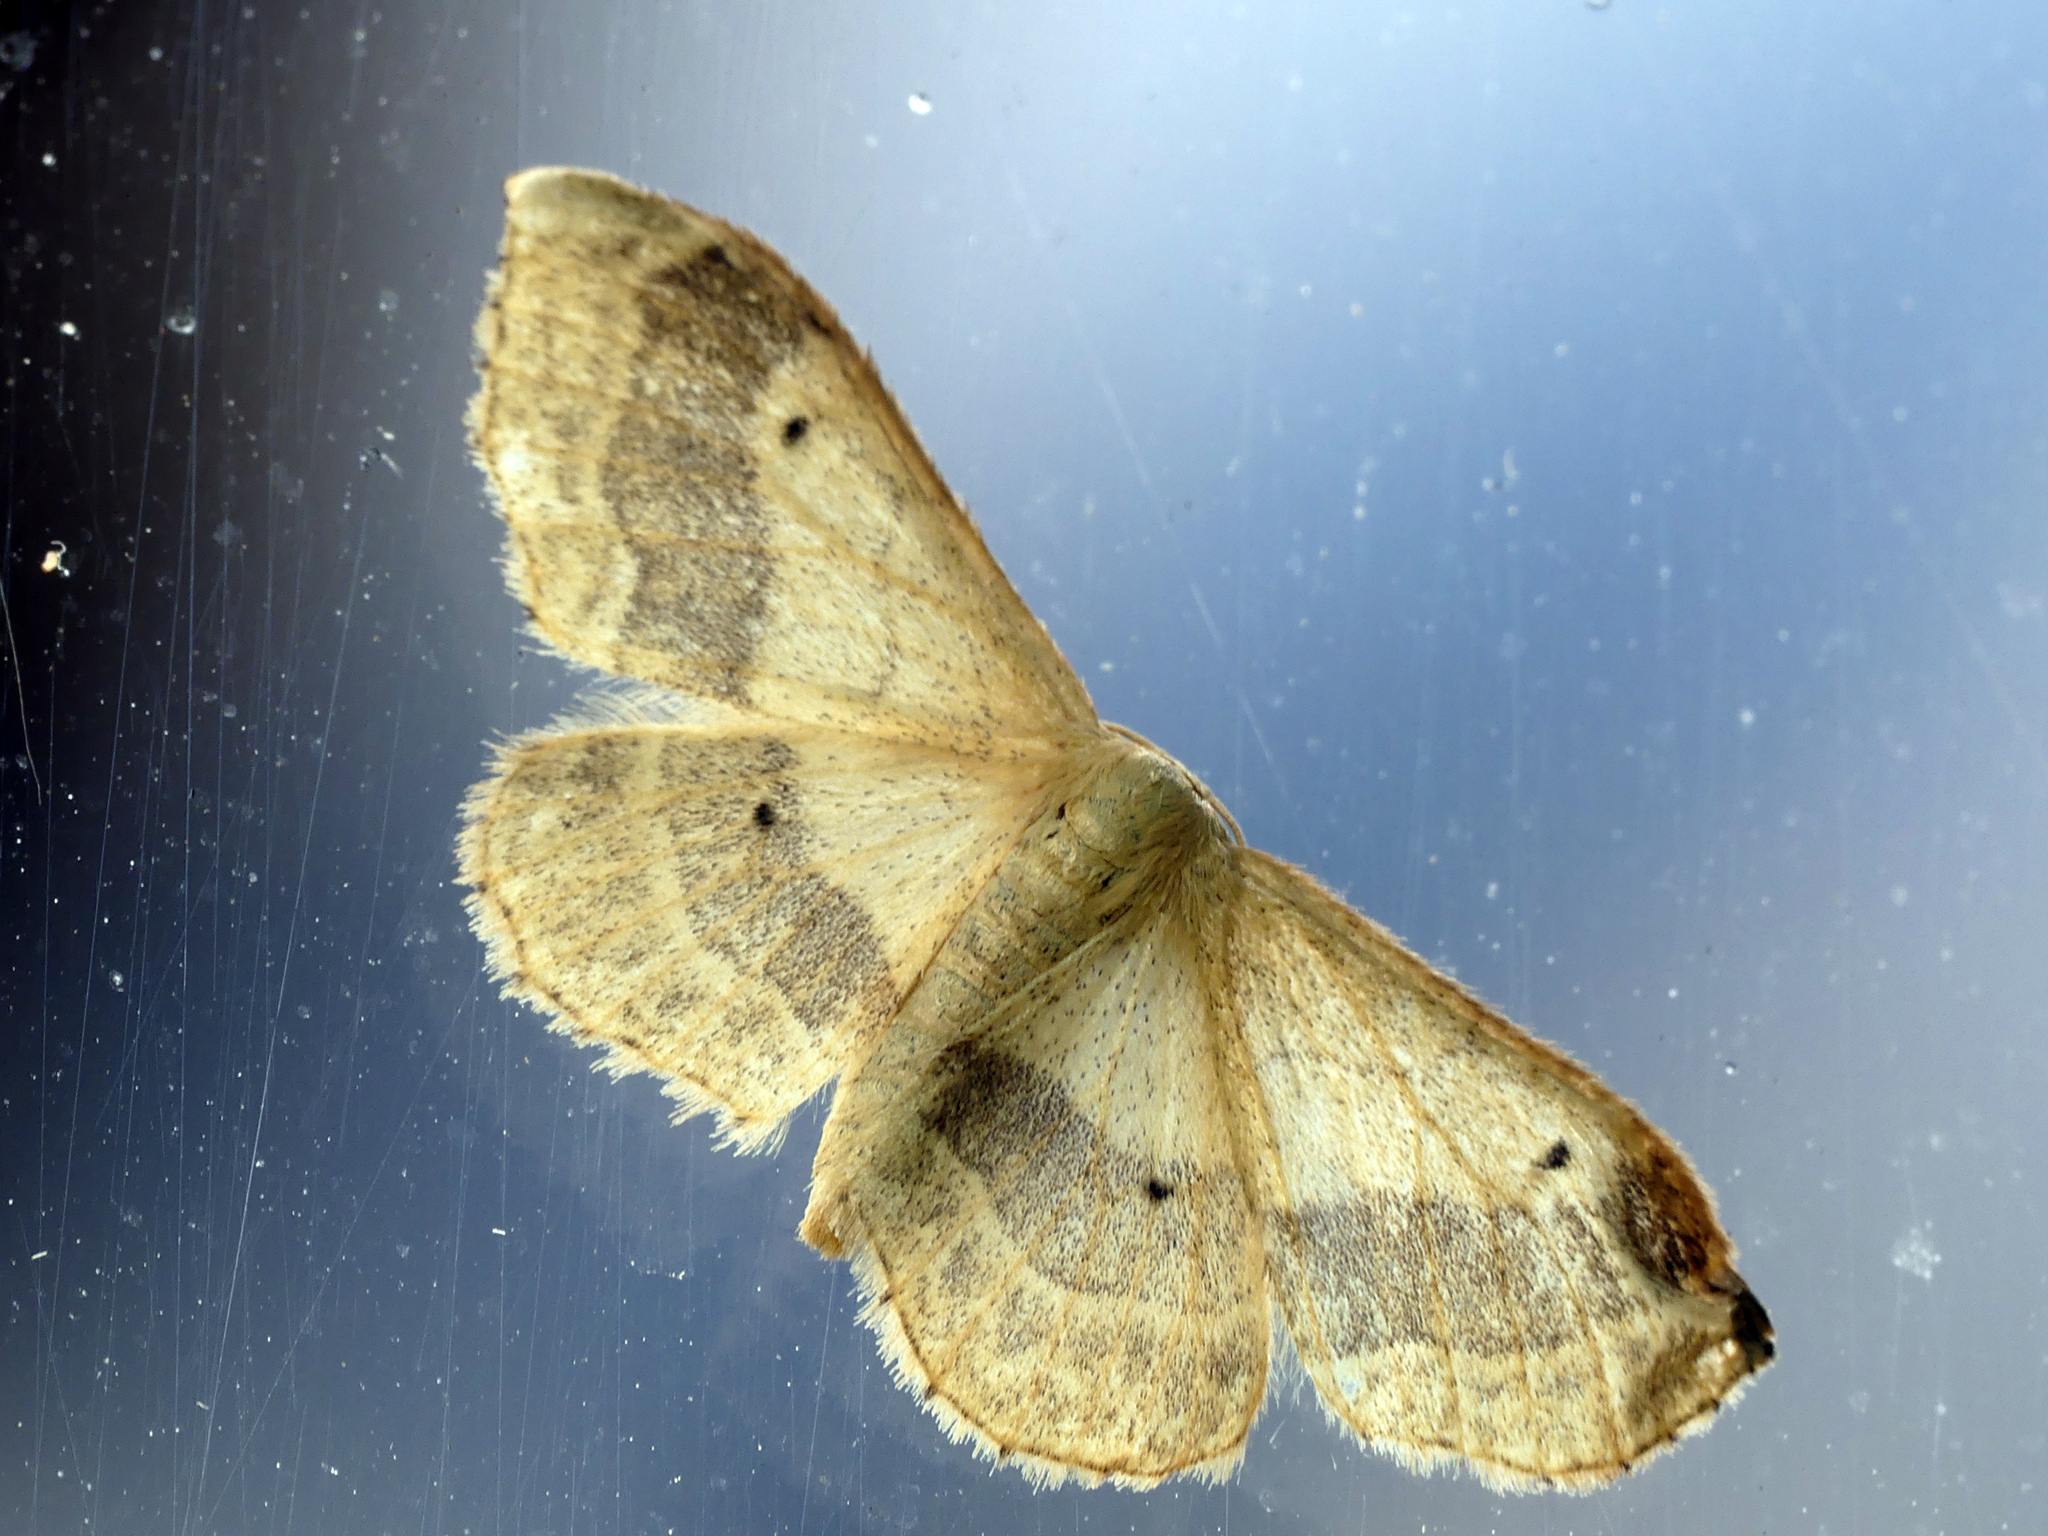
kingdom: Animalia
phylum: Arthropoda
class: Insecta
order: Lepidoptera
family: Geometridae
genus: Idaea
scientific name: Idaea aversata
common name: Riband wave
